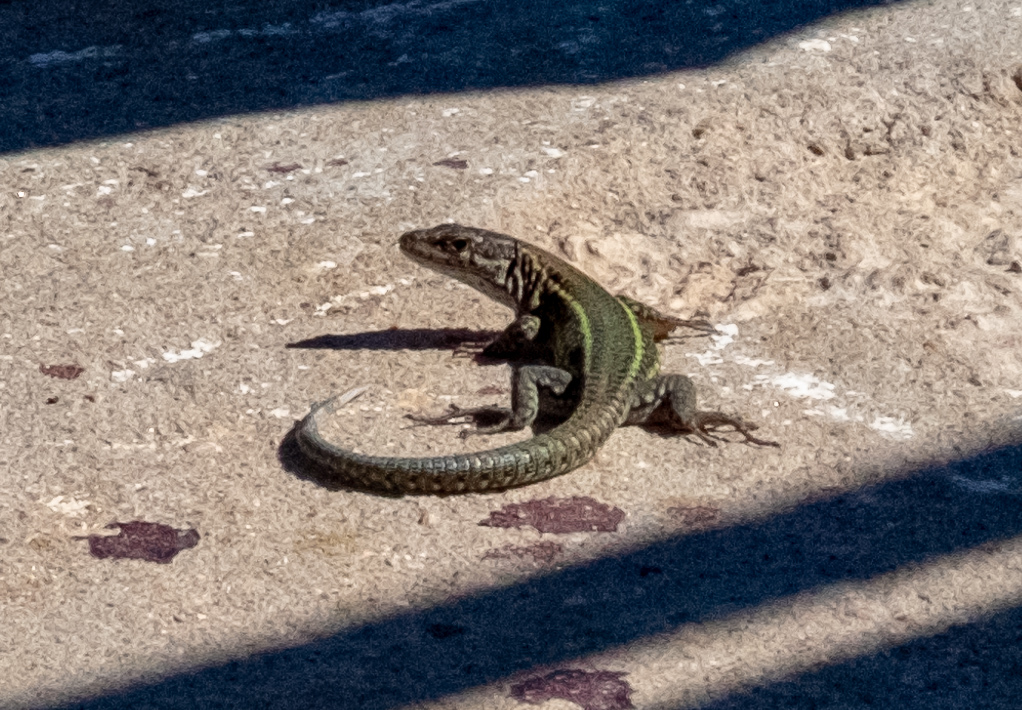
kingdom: Animalia
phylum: Chordata
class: Squamata
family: Lacertidae
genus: Podarcis
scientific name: Podarcis vaucheri
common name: Vaucher's wall lizard
